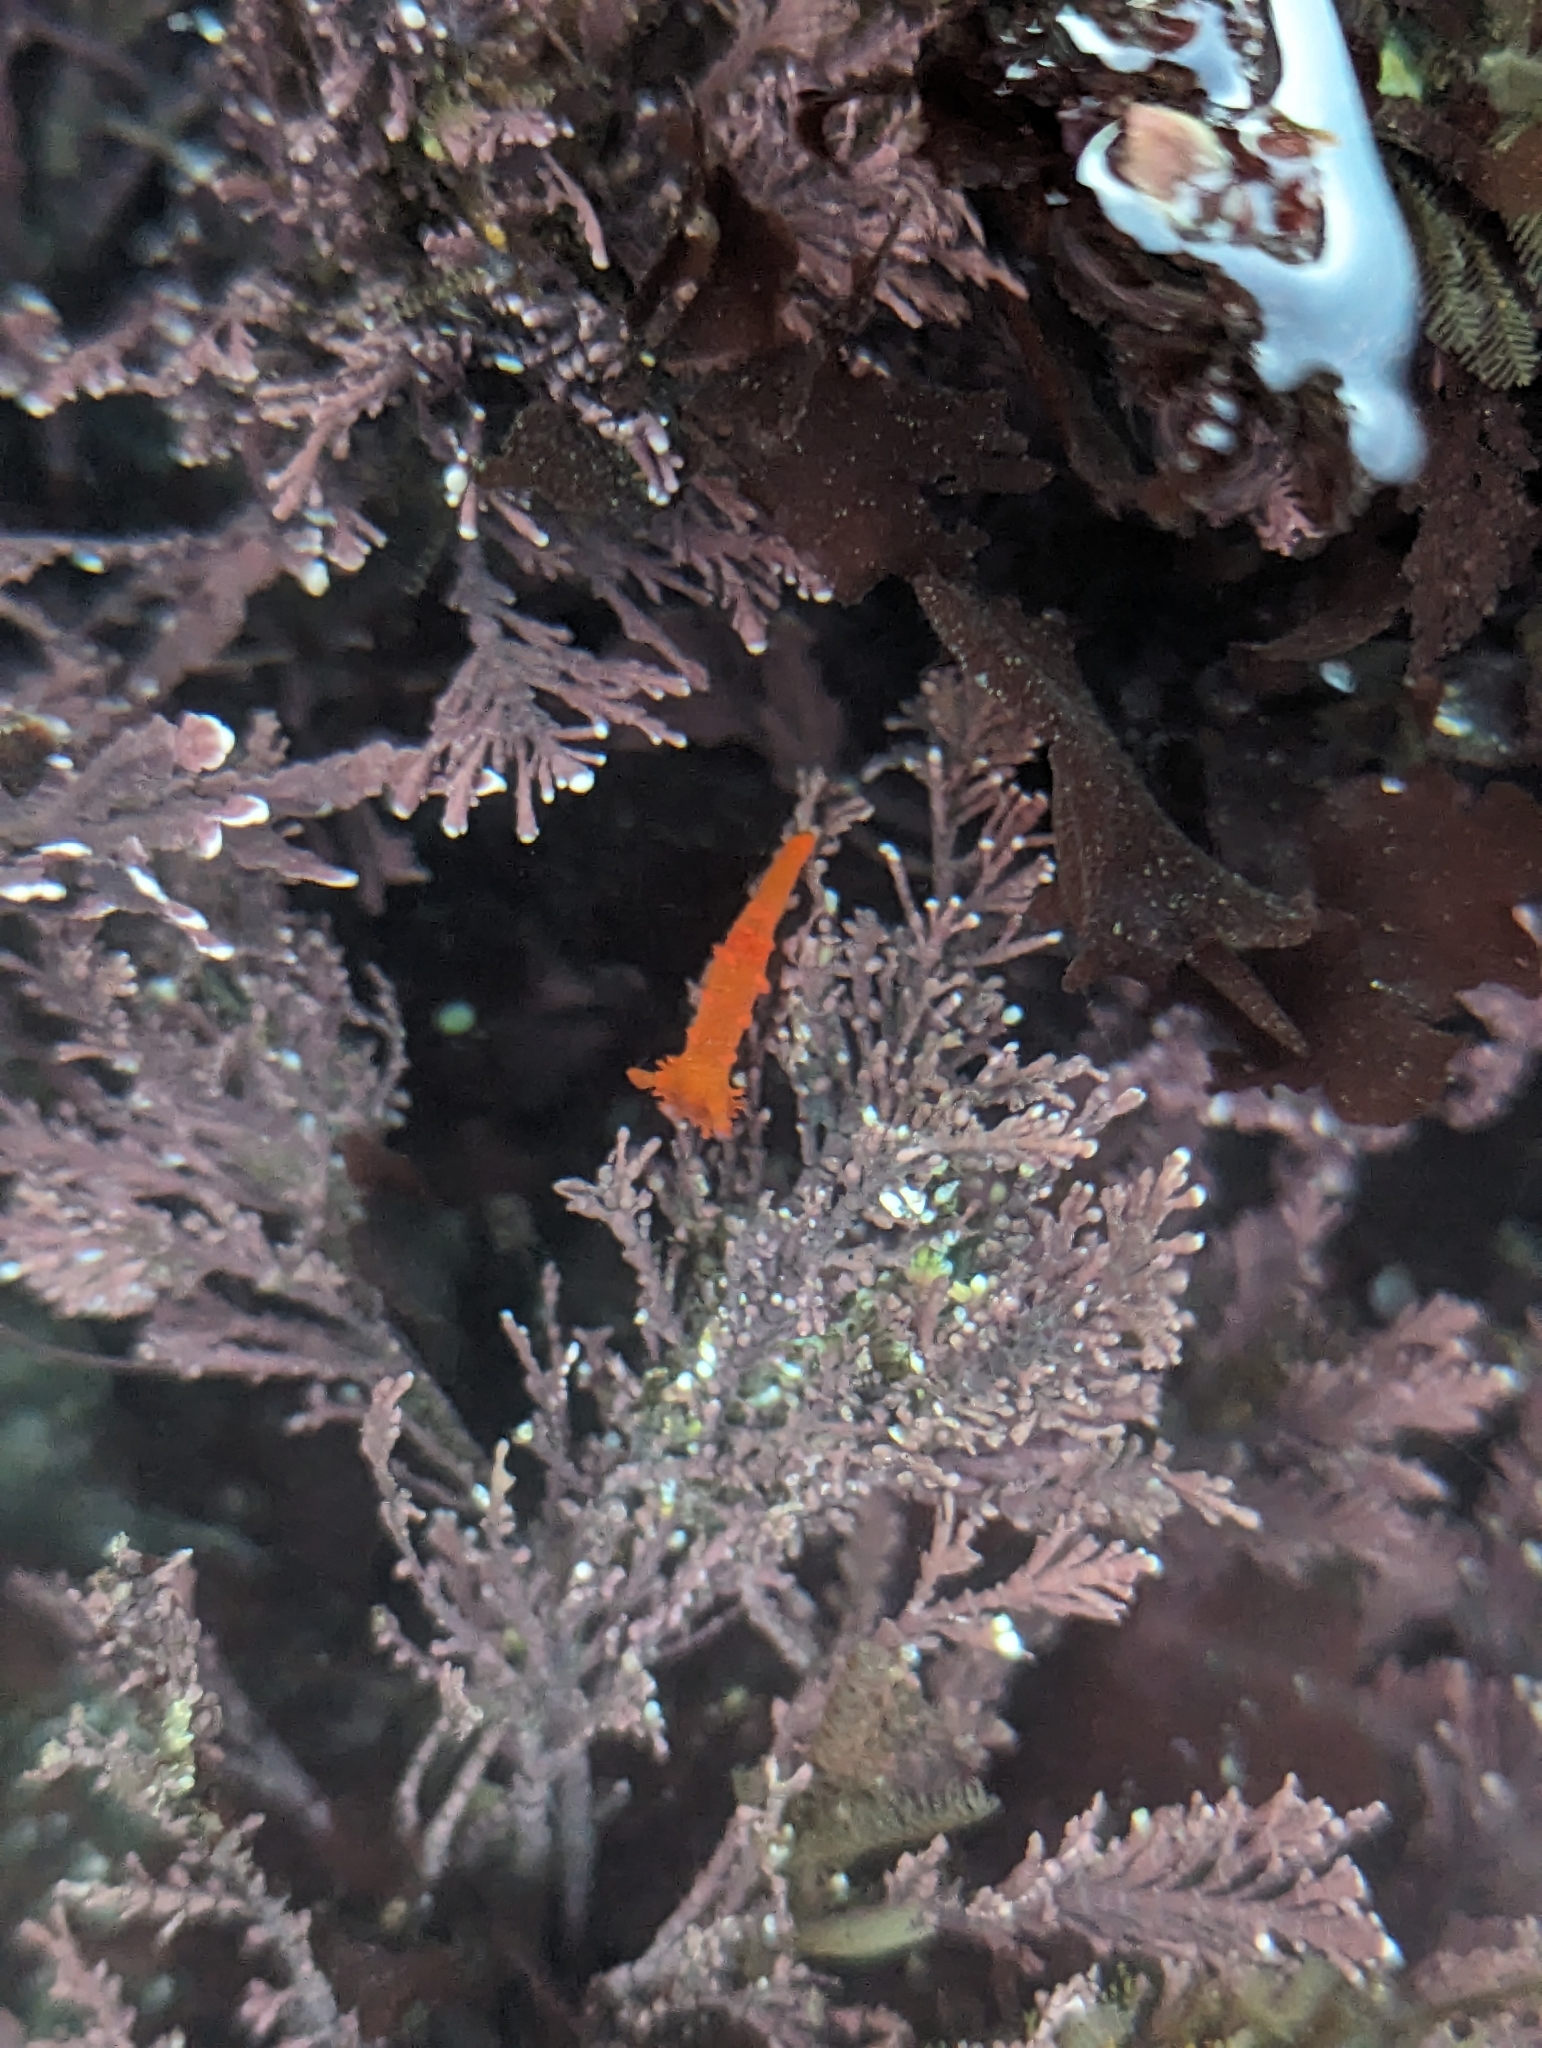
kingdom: Animalia
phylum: Mollusca
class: Gastropoda
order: Nudibranchia
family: Polyceridae
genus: Triopha
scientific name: Triopha maculata
